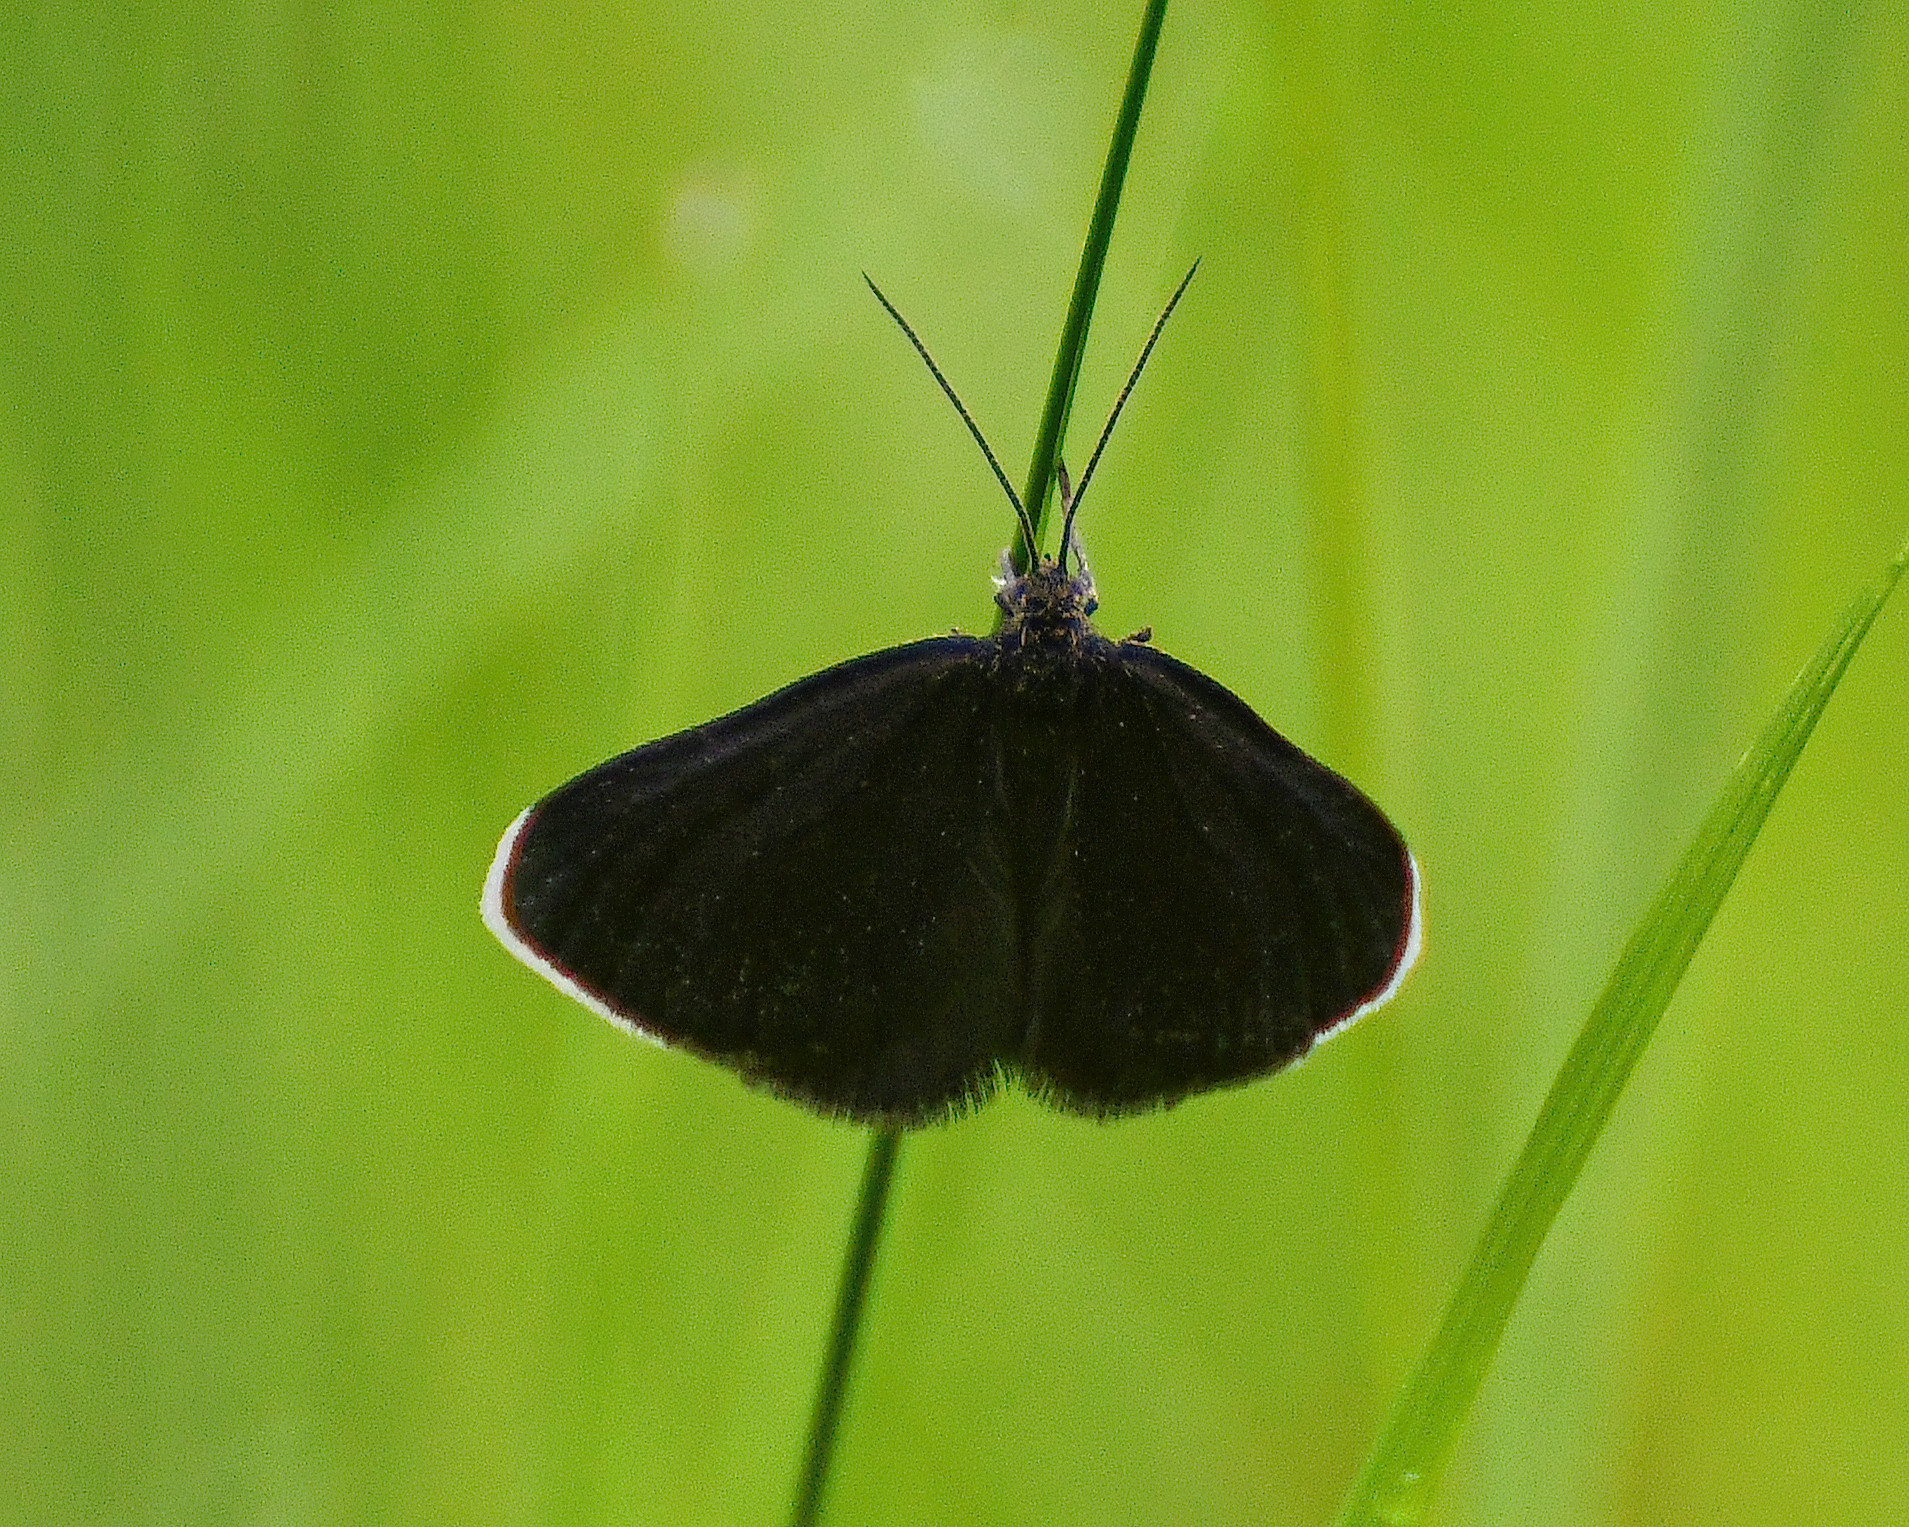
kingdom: Animalia
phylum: Arthropoda
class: Insecta
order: Lepidoptera
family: Geometridae
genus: Odezia
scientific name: Odezia atrata
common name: Chimney sweeper
